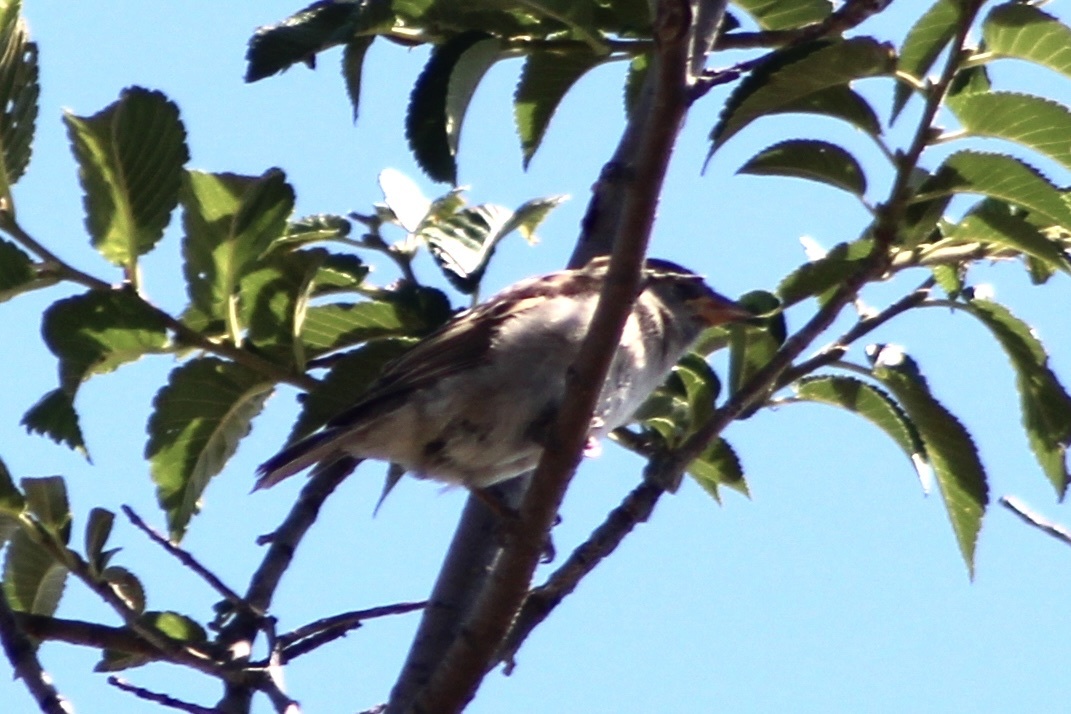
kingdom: Animalia
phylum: Chordata
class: Aves
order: Passeriformes
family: Passeridae
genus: Passer
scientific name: Passer domesticus
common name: House sparrow
